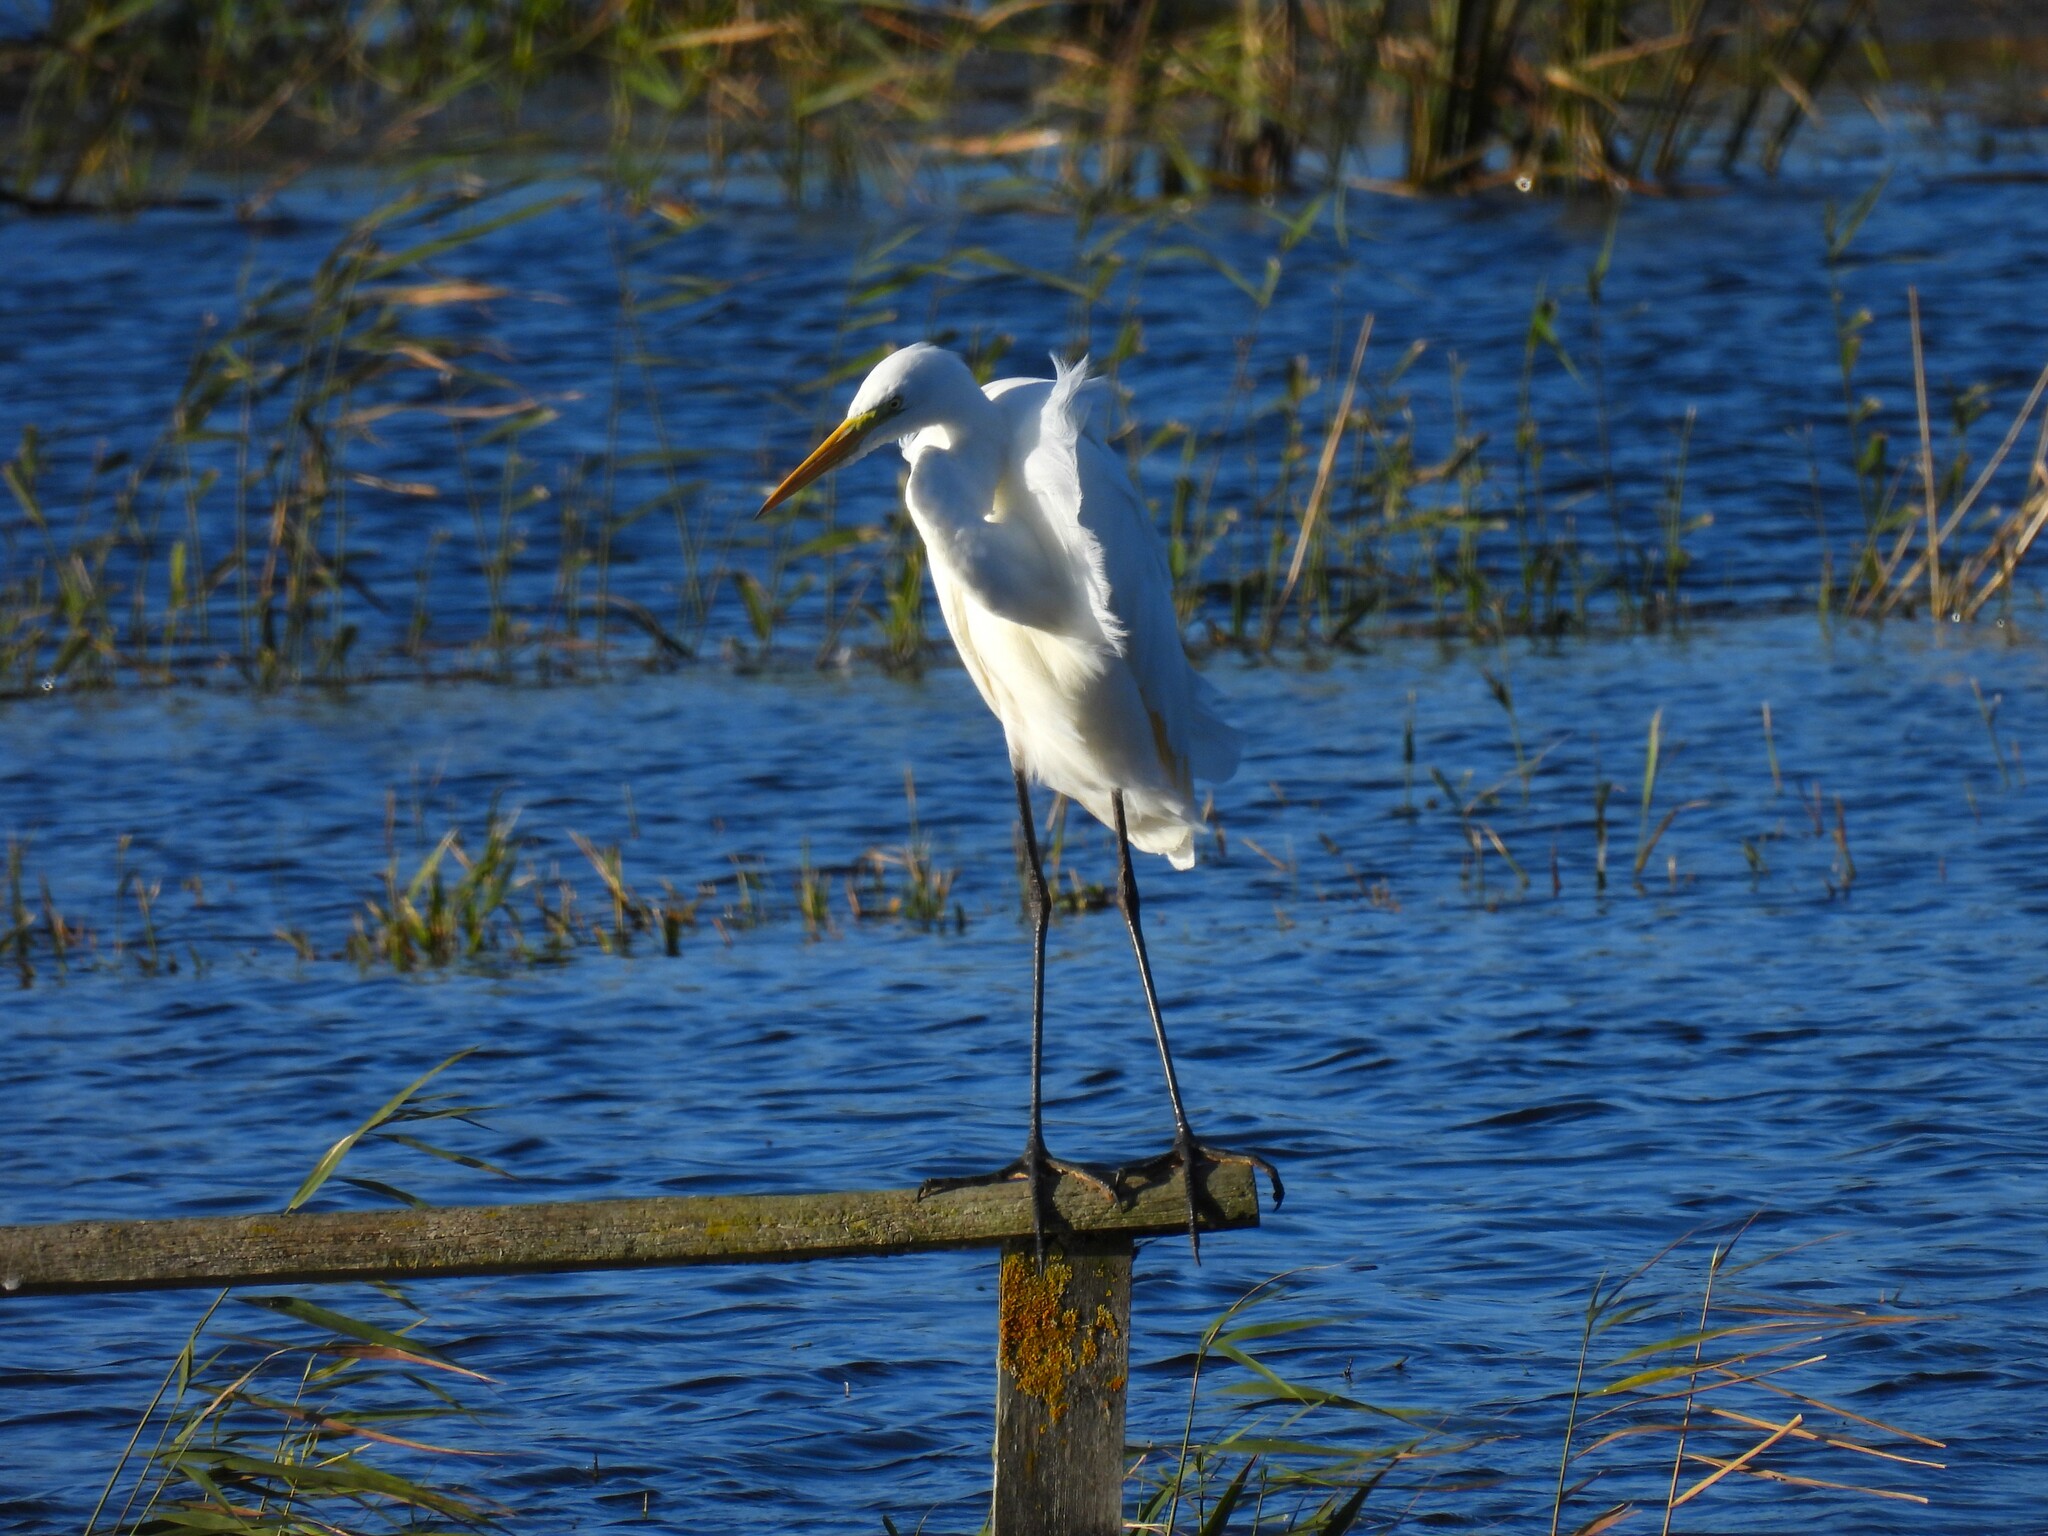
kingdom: Animalia
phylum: Chordata
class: Aves
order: Pelecaniformes
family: Ardeidae
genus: Ardea
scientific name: Ardea alba
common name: Great egret
